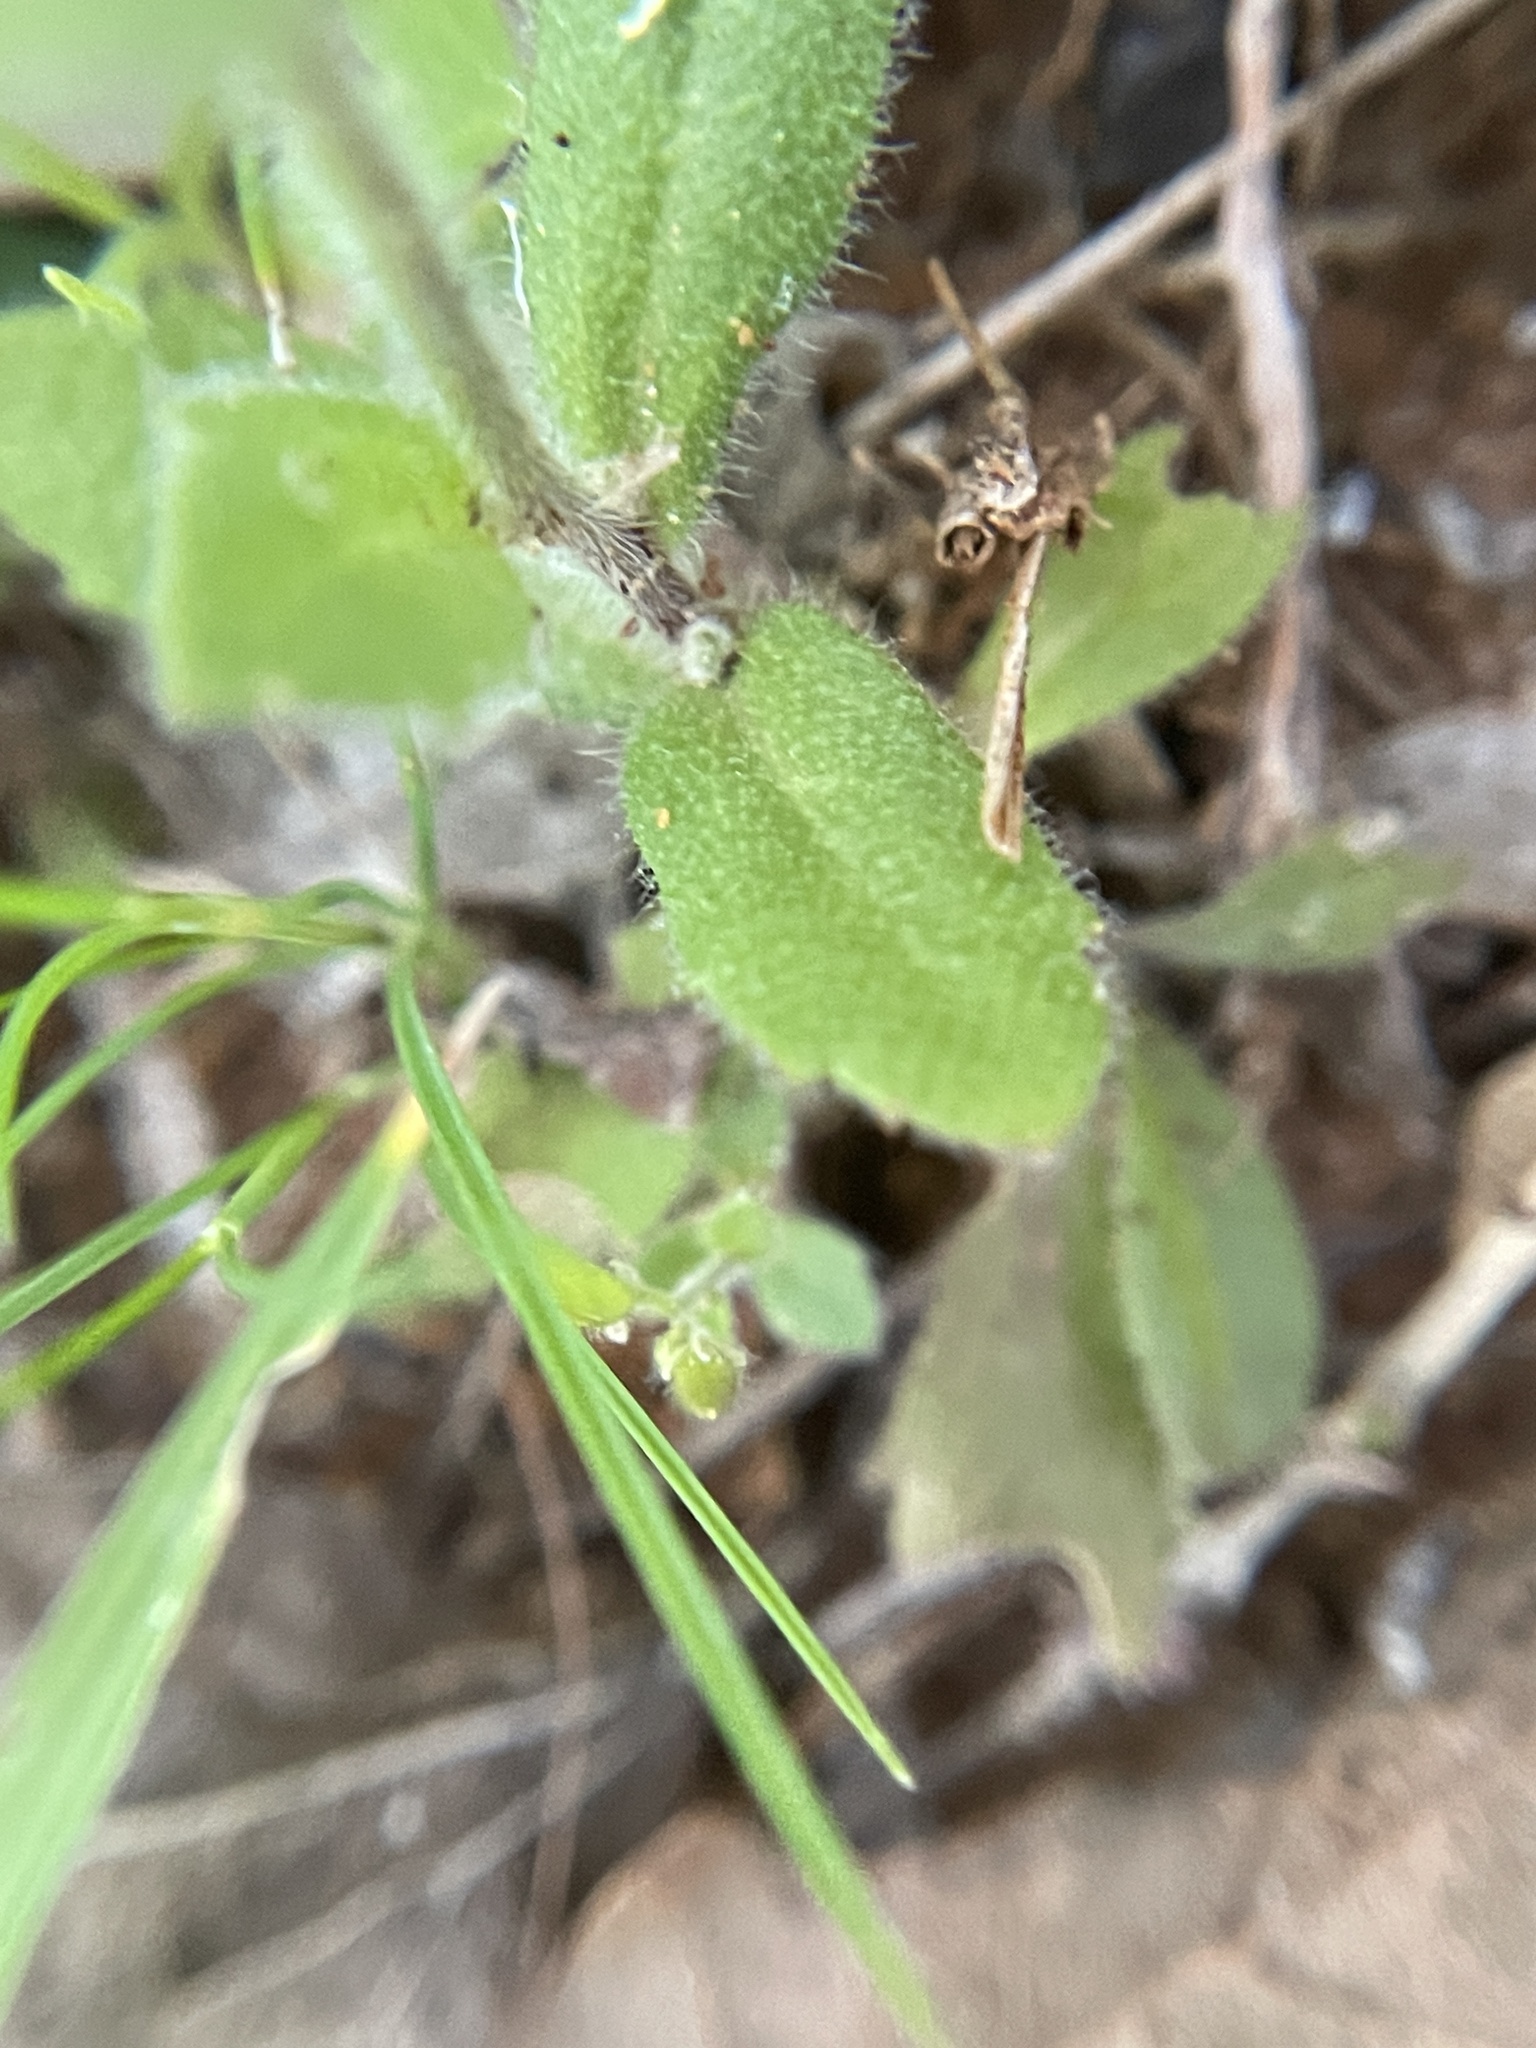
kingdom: Plantae
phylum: Tracheophyta
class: Magnoliopsida
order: Brassicales
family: Brassicaceae
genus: Tomostima
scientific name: Tomostima platycarpa
